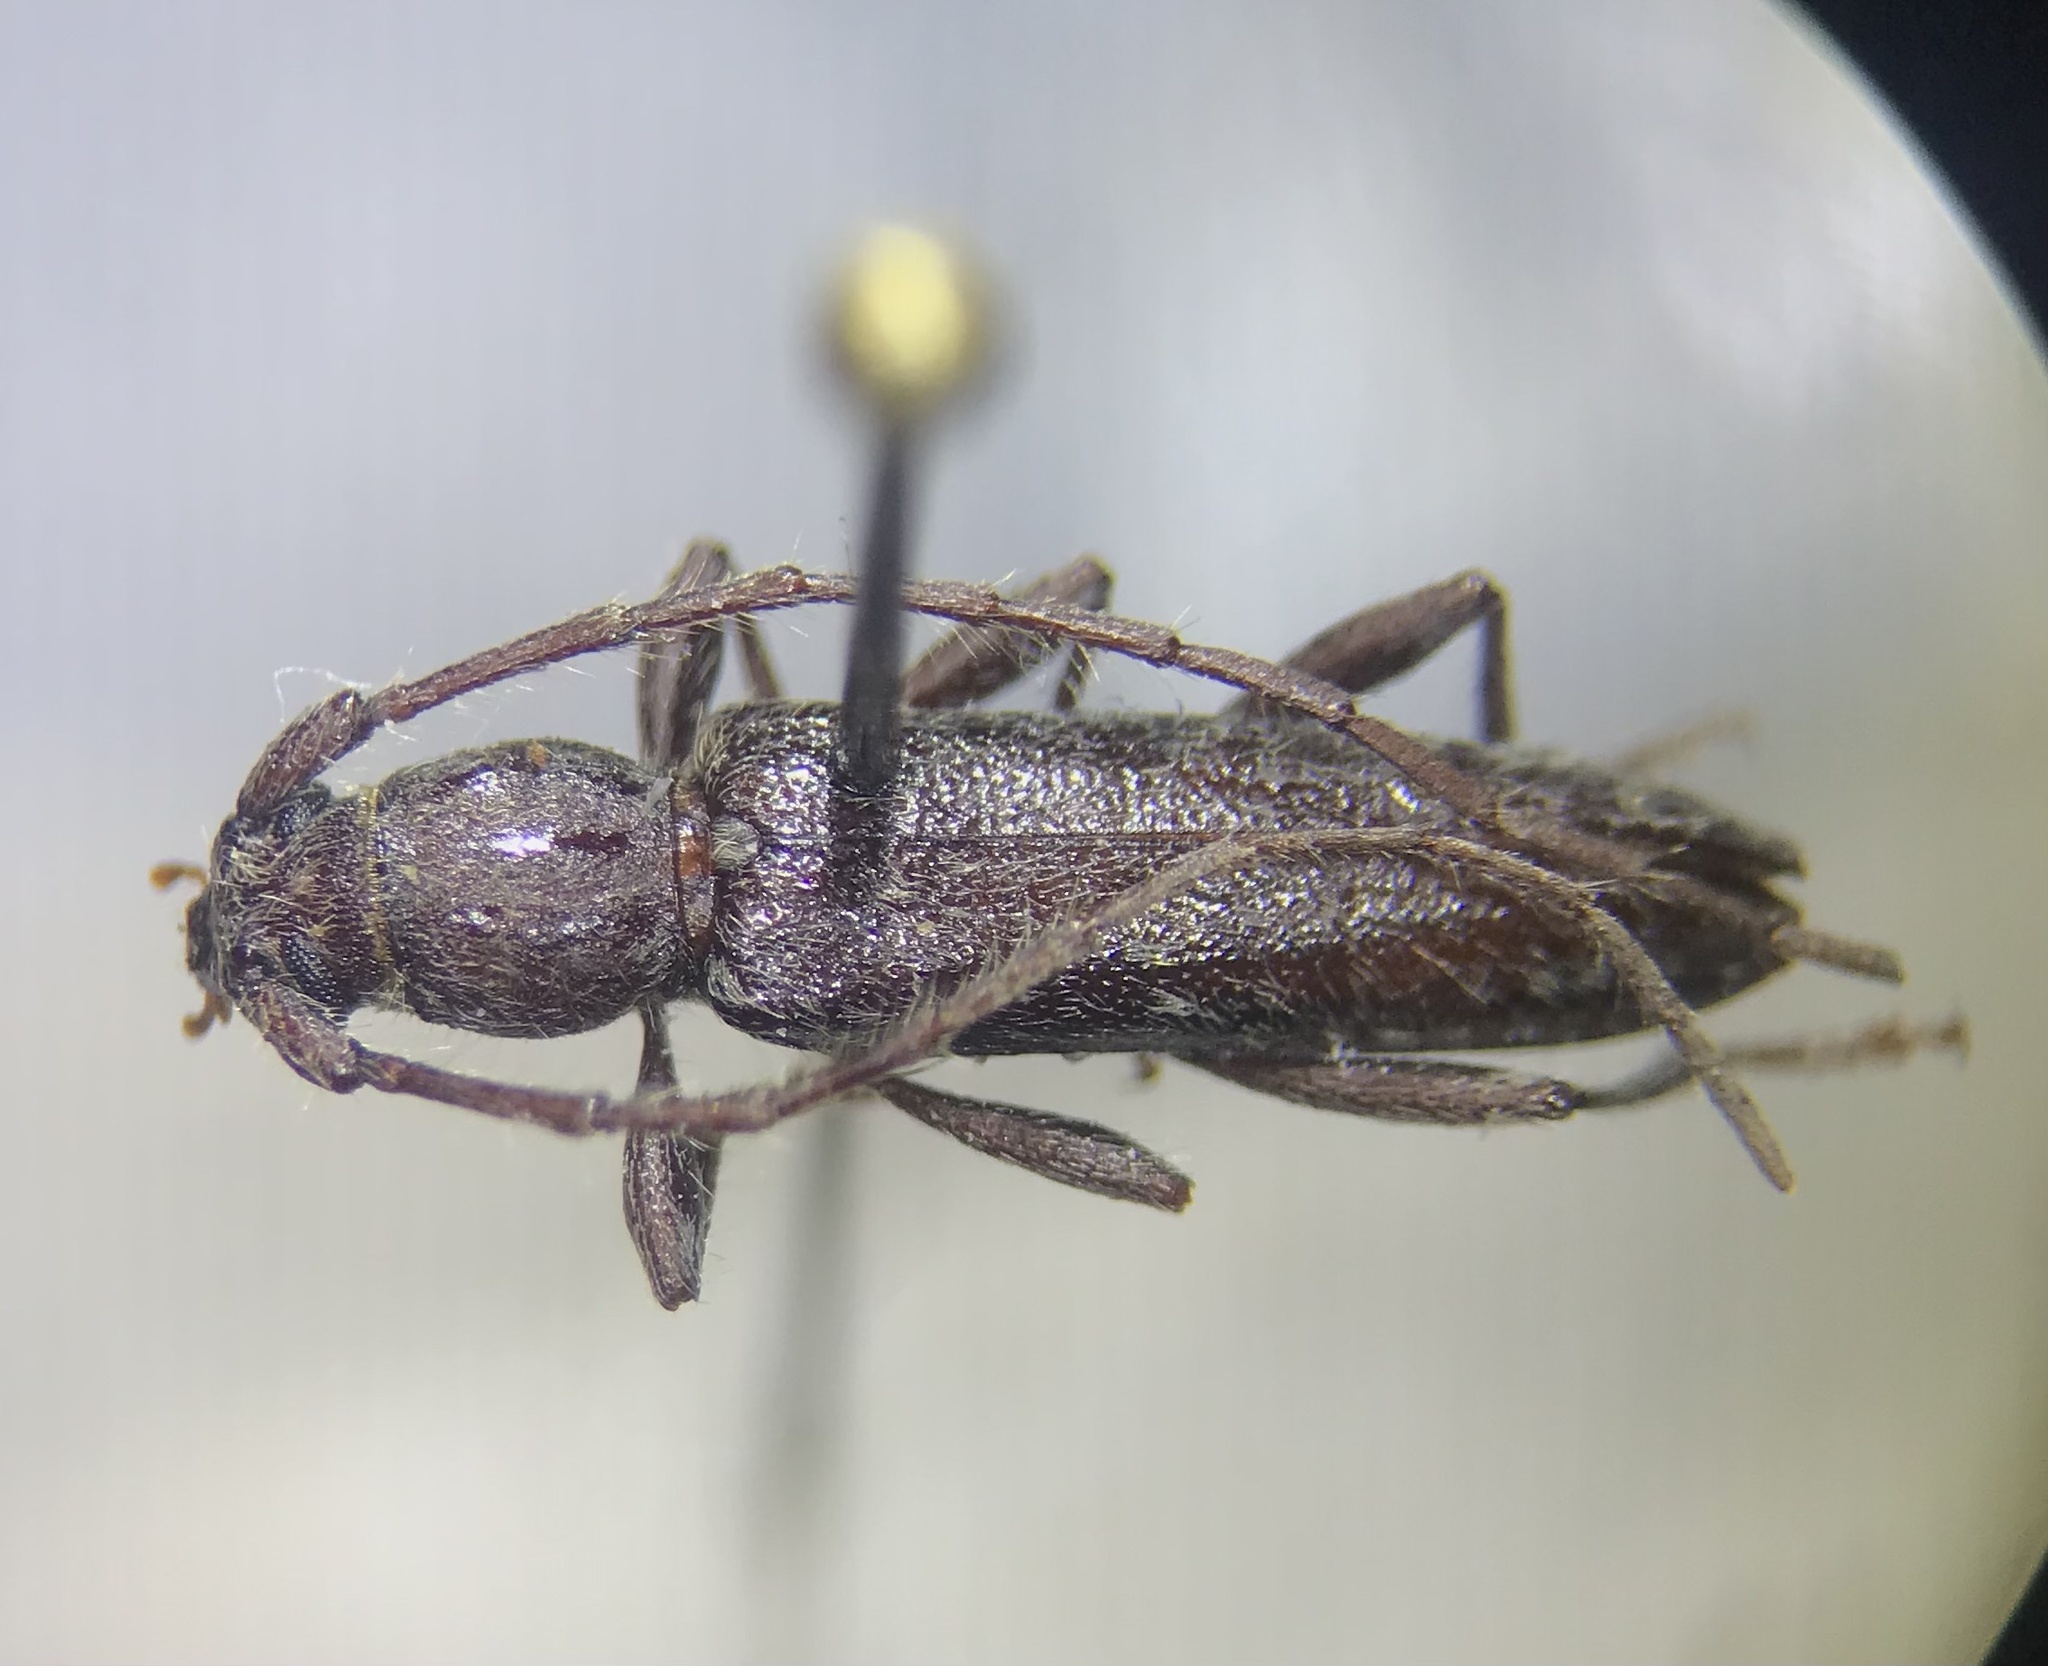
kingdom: Animalia
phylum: Arthropoda
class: Insecta
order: Coleoptera
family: Cerambycidae
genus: Anelaphus
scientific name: Anelaphus pumilus
